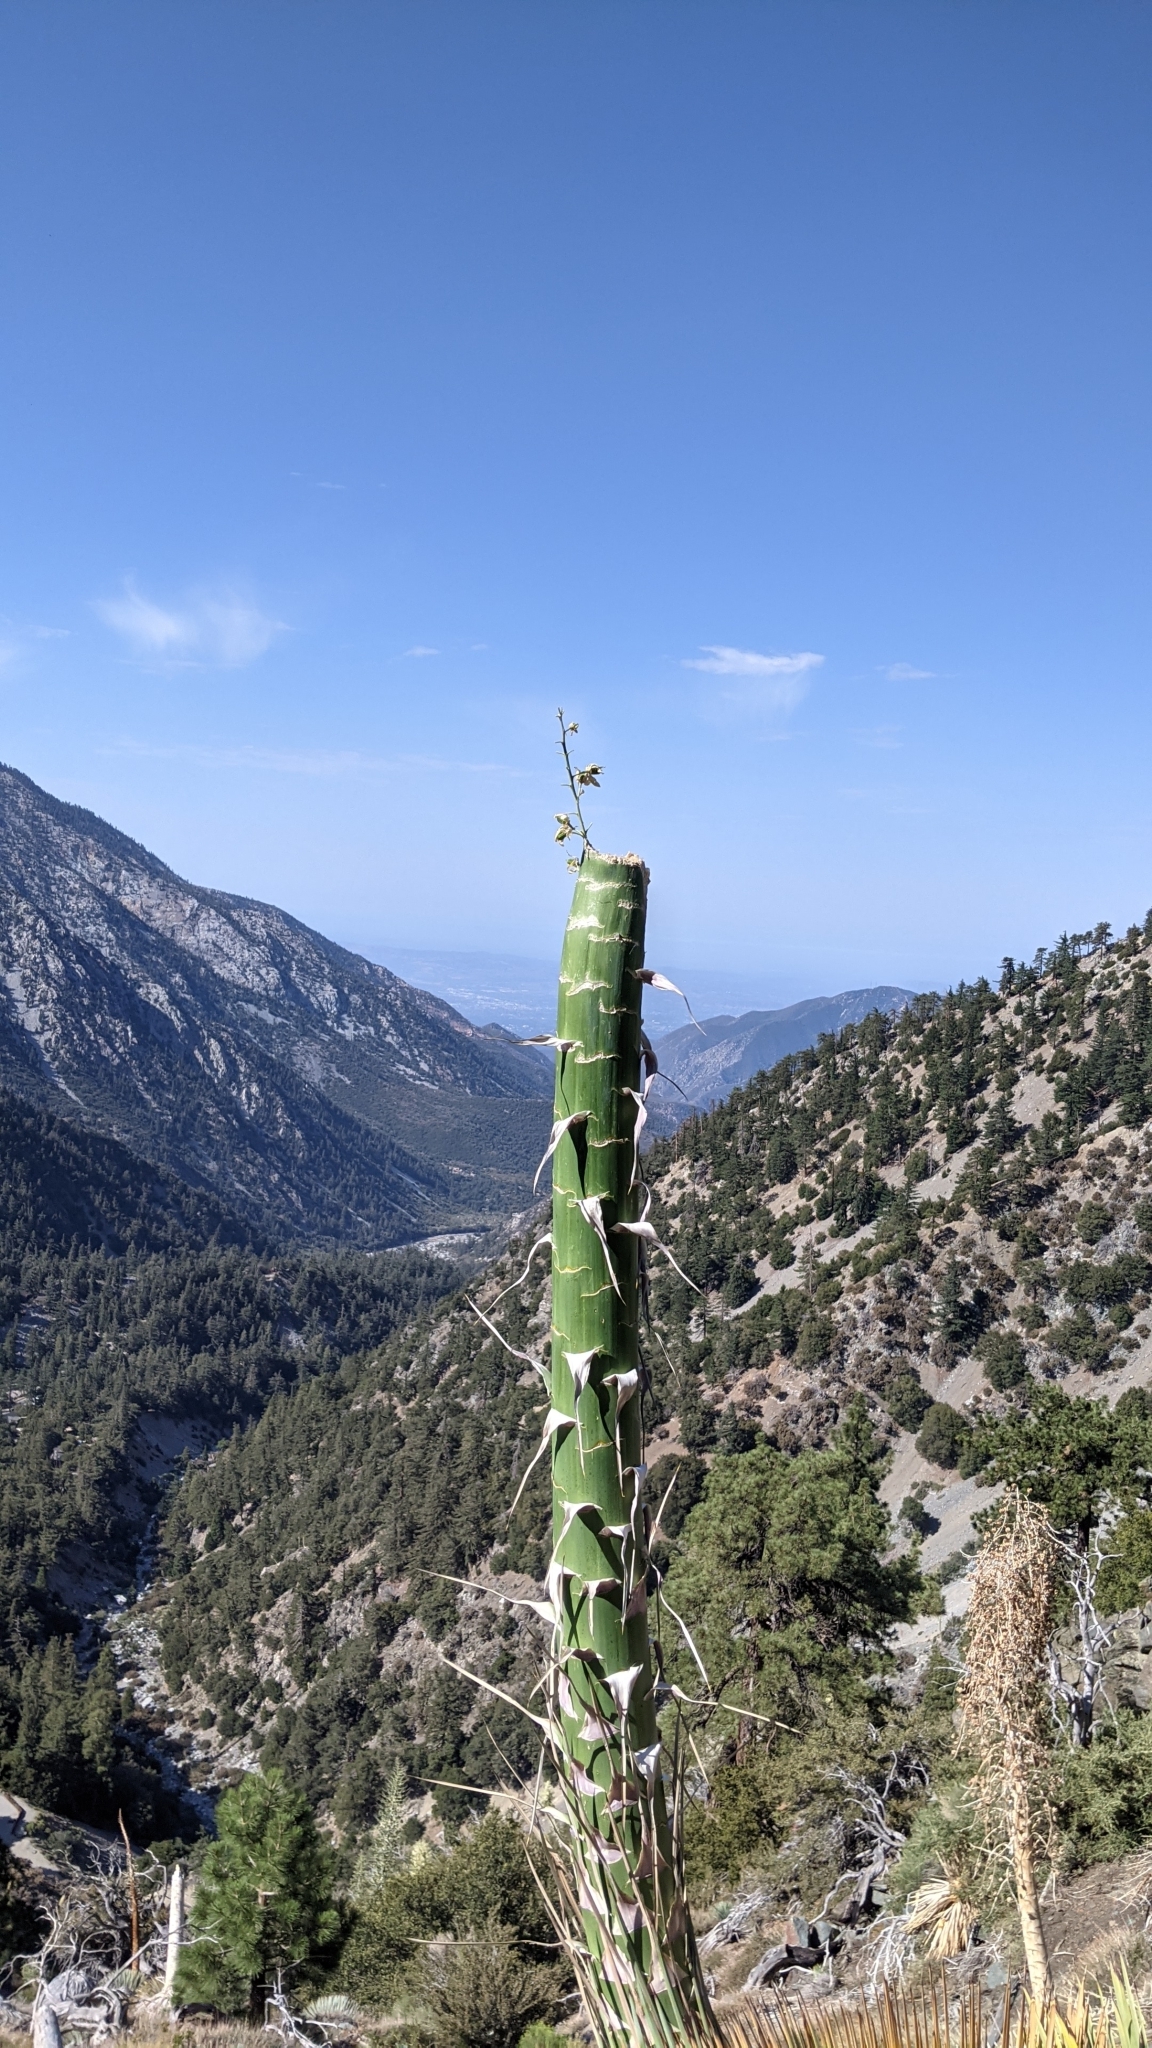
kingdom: Plantae
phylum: Tracheophyta
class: Liliopsida
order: Asparagales
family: Asparagaceae
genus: Hesperoyucca
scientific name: Hesperoyucca whipplei
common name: Our lord's-candle
